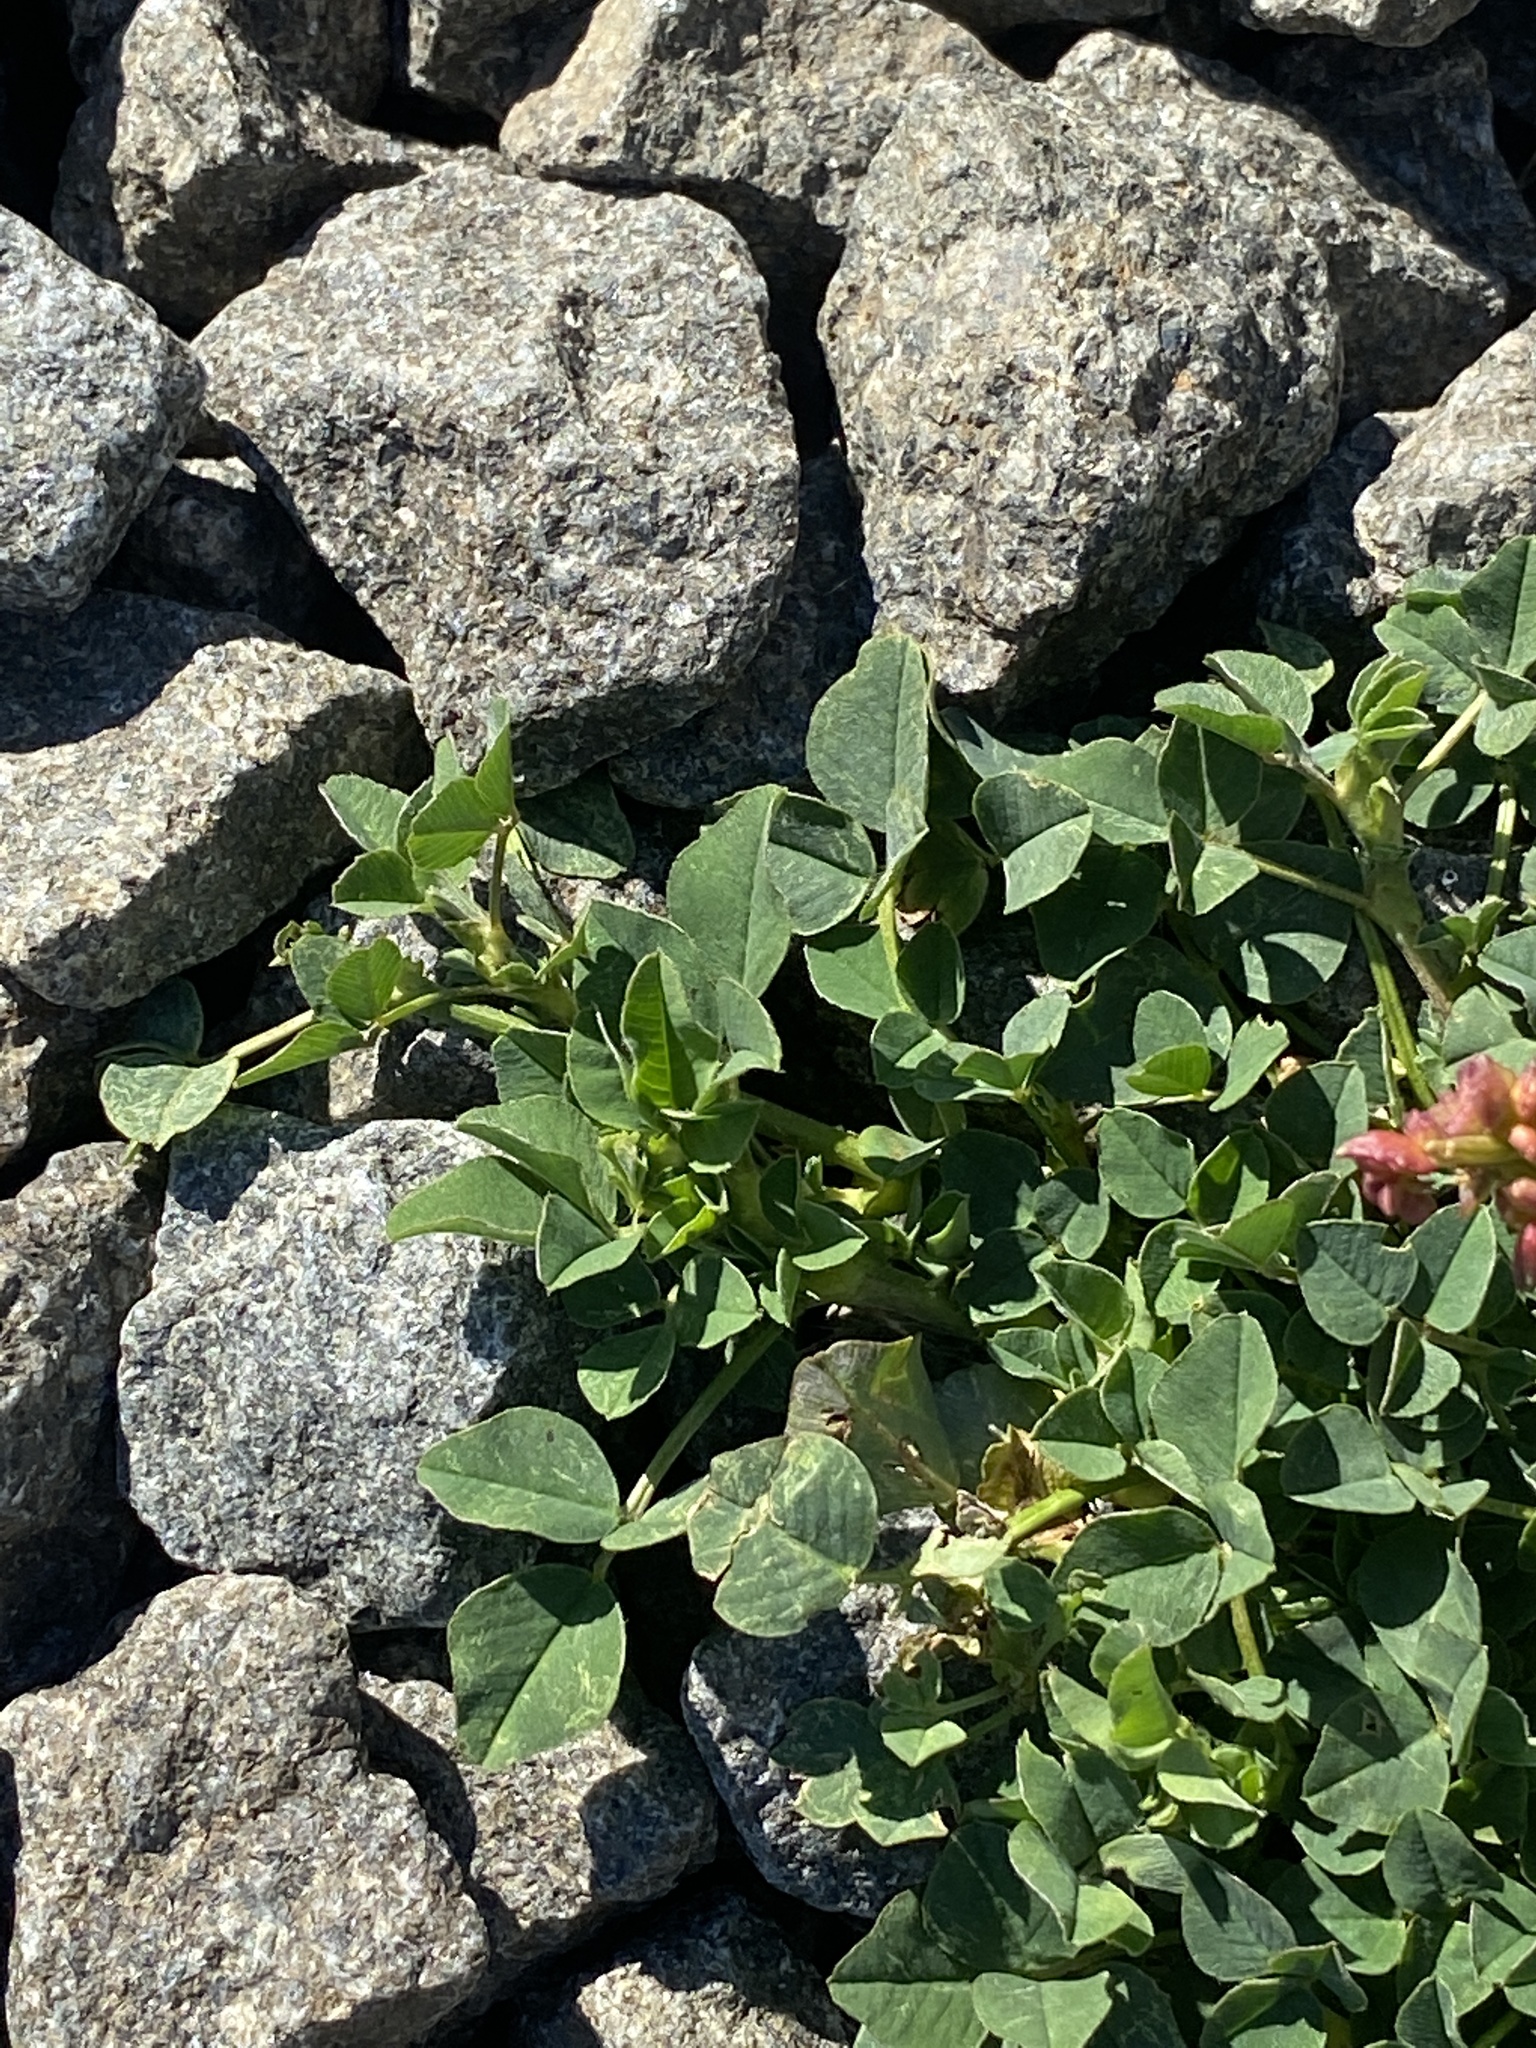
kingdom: Plantae
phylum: Tracheophyta
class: Magnoliopsida
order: Fabales
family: Fabaceae
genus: Medicago
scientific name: Medicago lupulina
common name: Black medick
